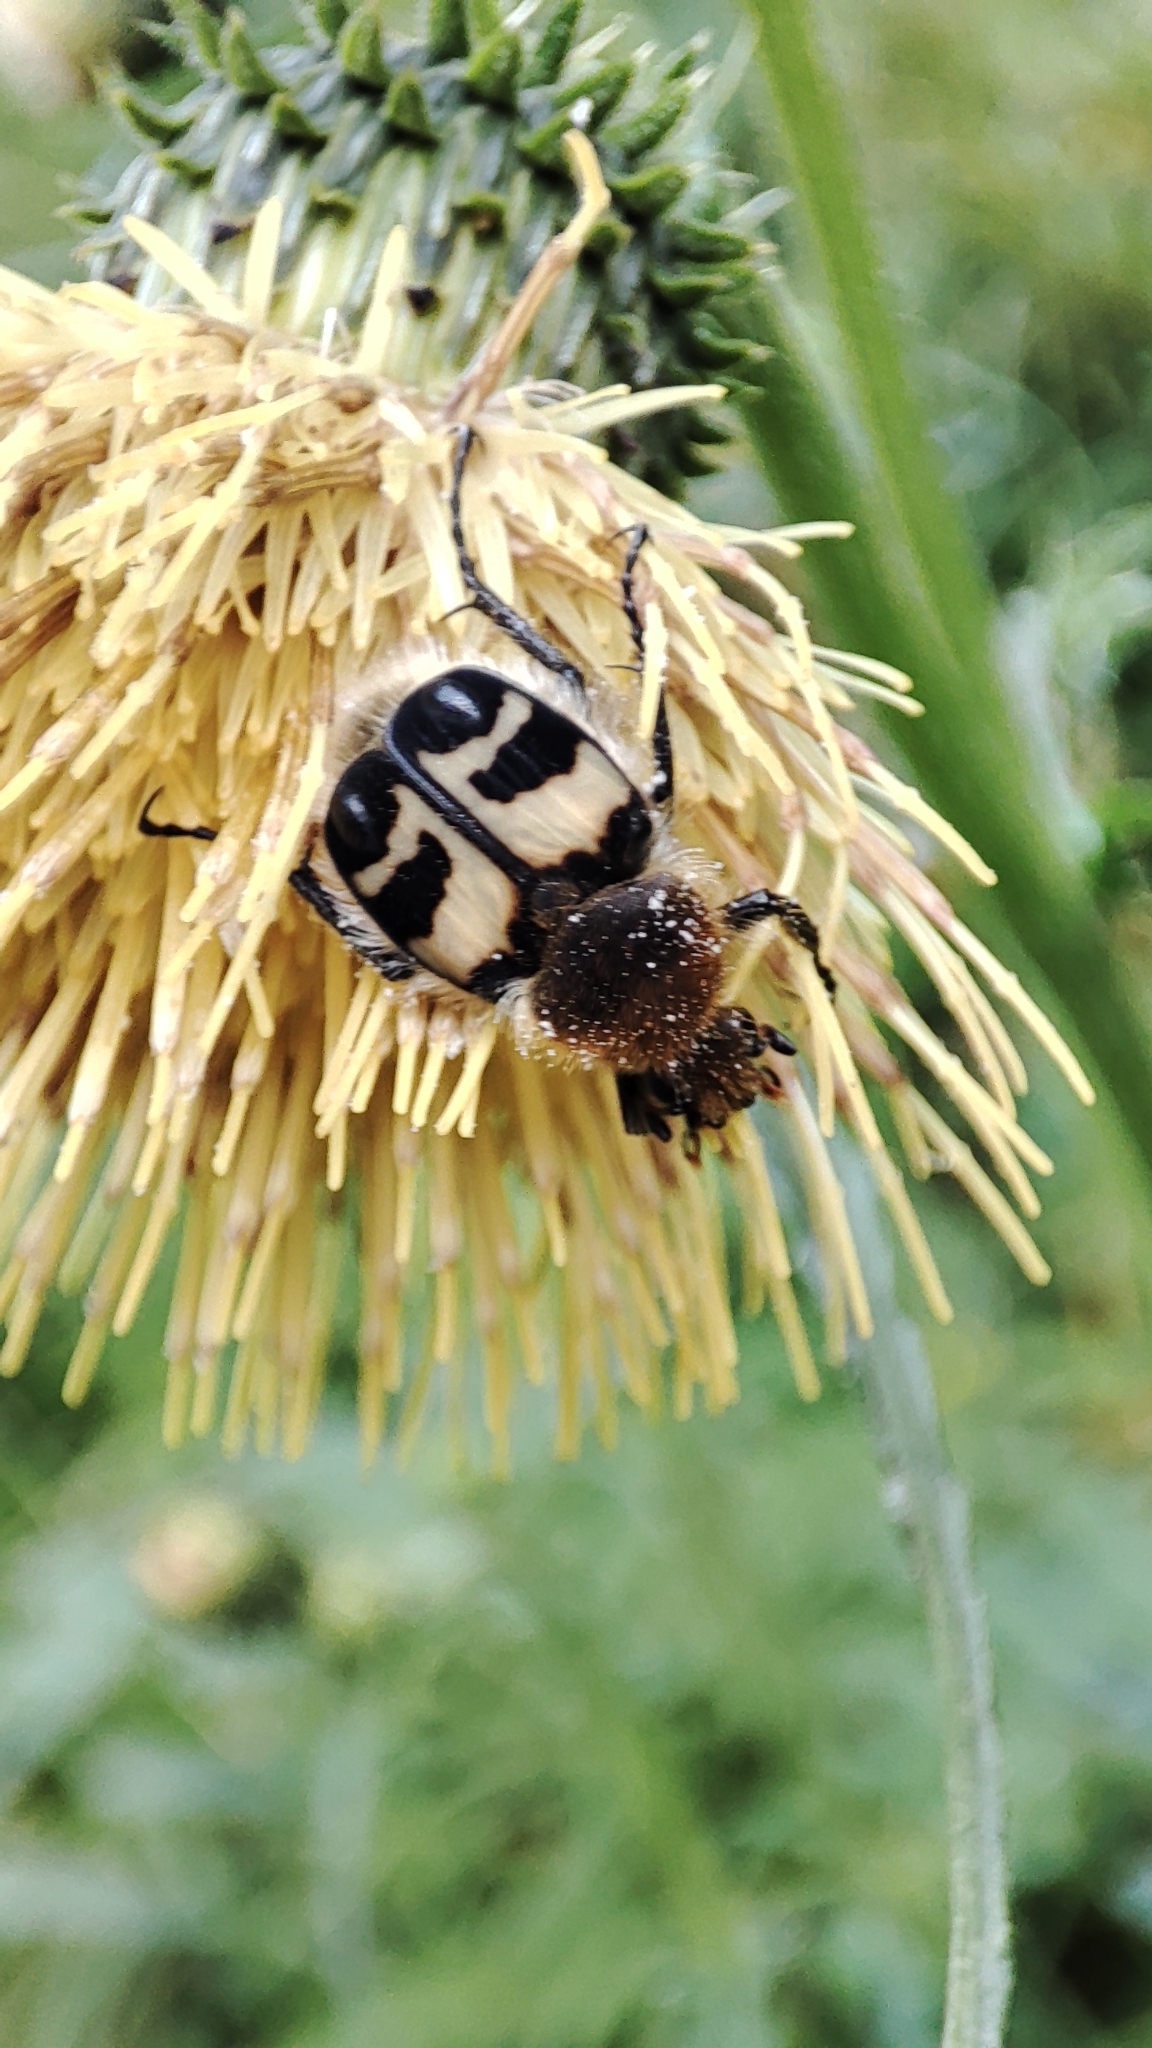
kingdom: Animalia
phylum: Arthropoda
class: Insecta
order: Coleoptera
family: Scarabaeidae
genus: Trichius
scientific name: Trichius fasciatus
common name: Bee beetle
